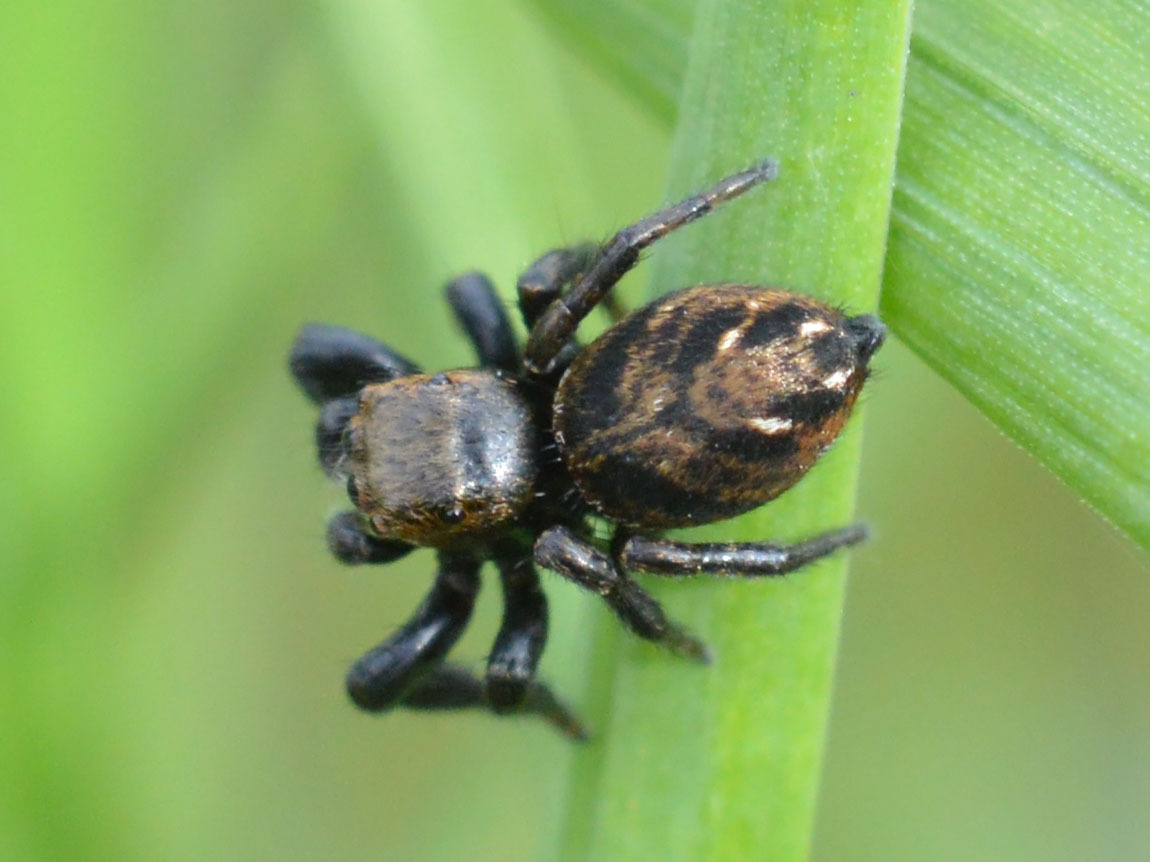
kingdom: Animalia
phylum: Arthropoda
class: Arachnida
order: Araneae
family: Salticidae
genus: Evarcha
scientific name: Evarcha arcuata
